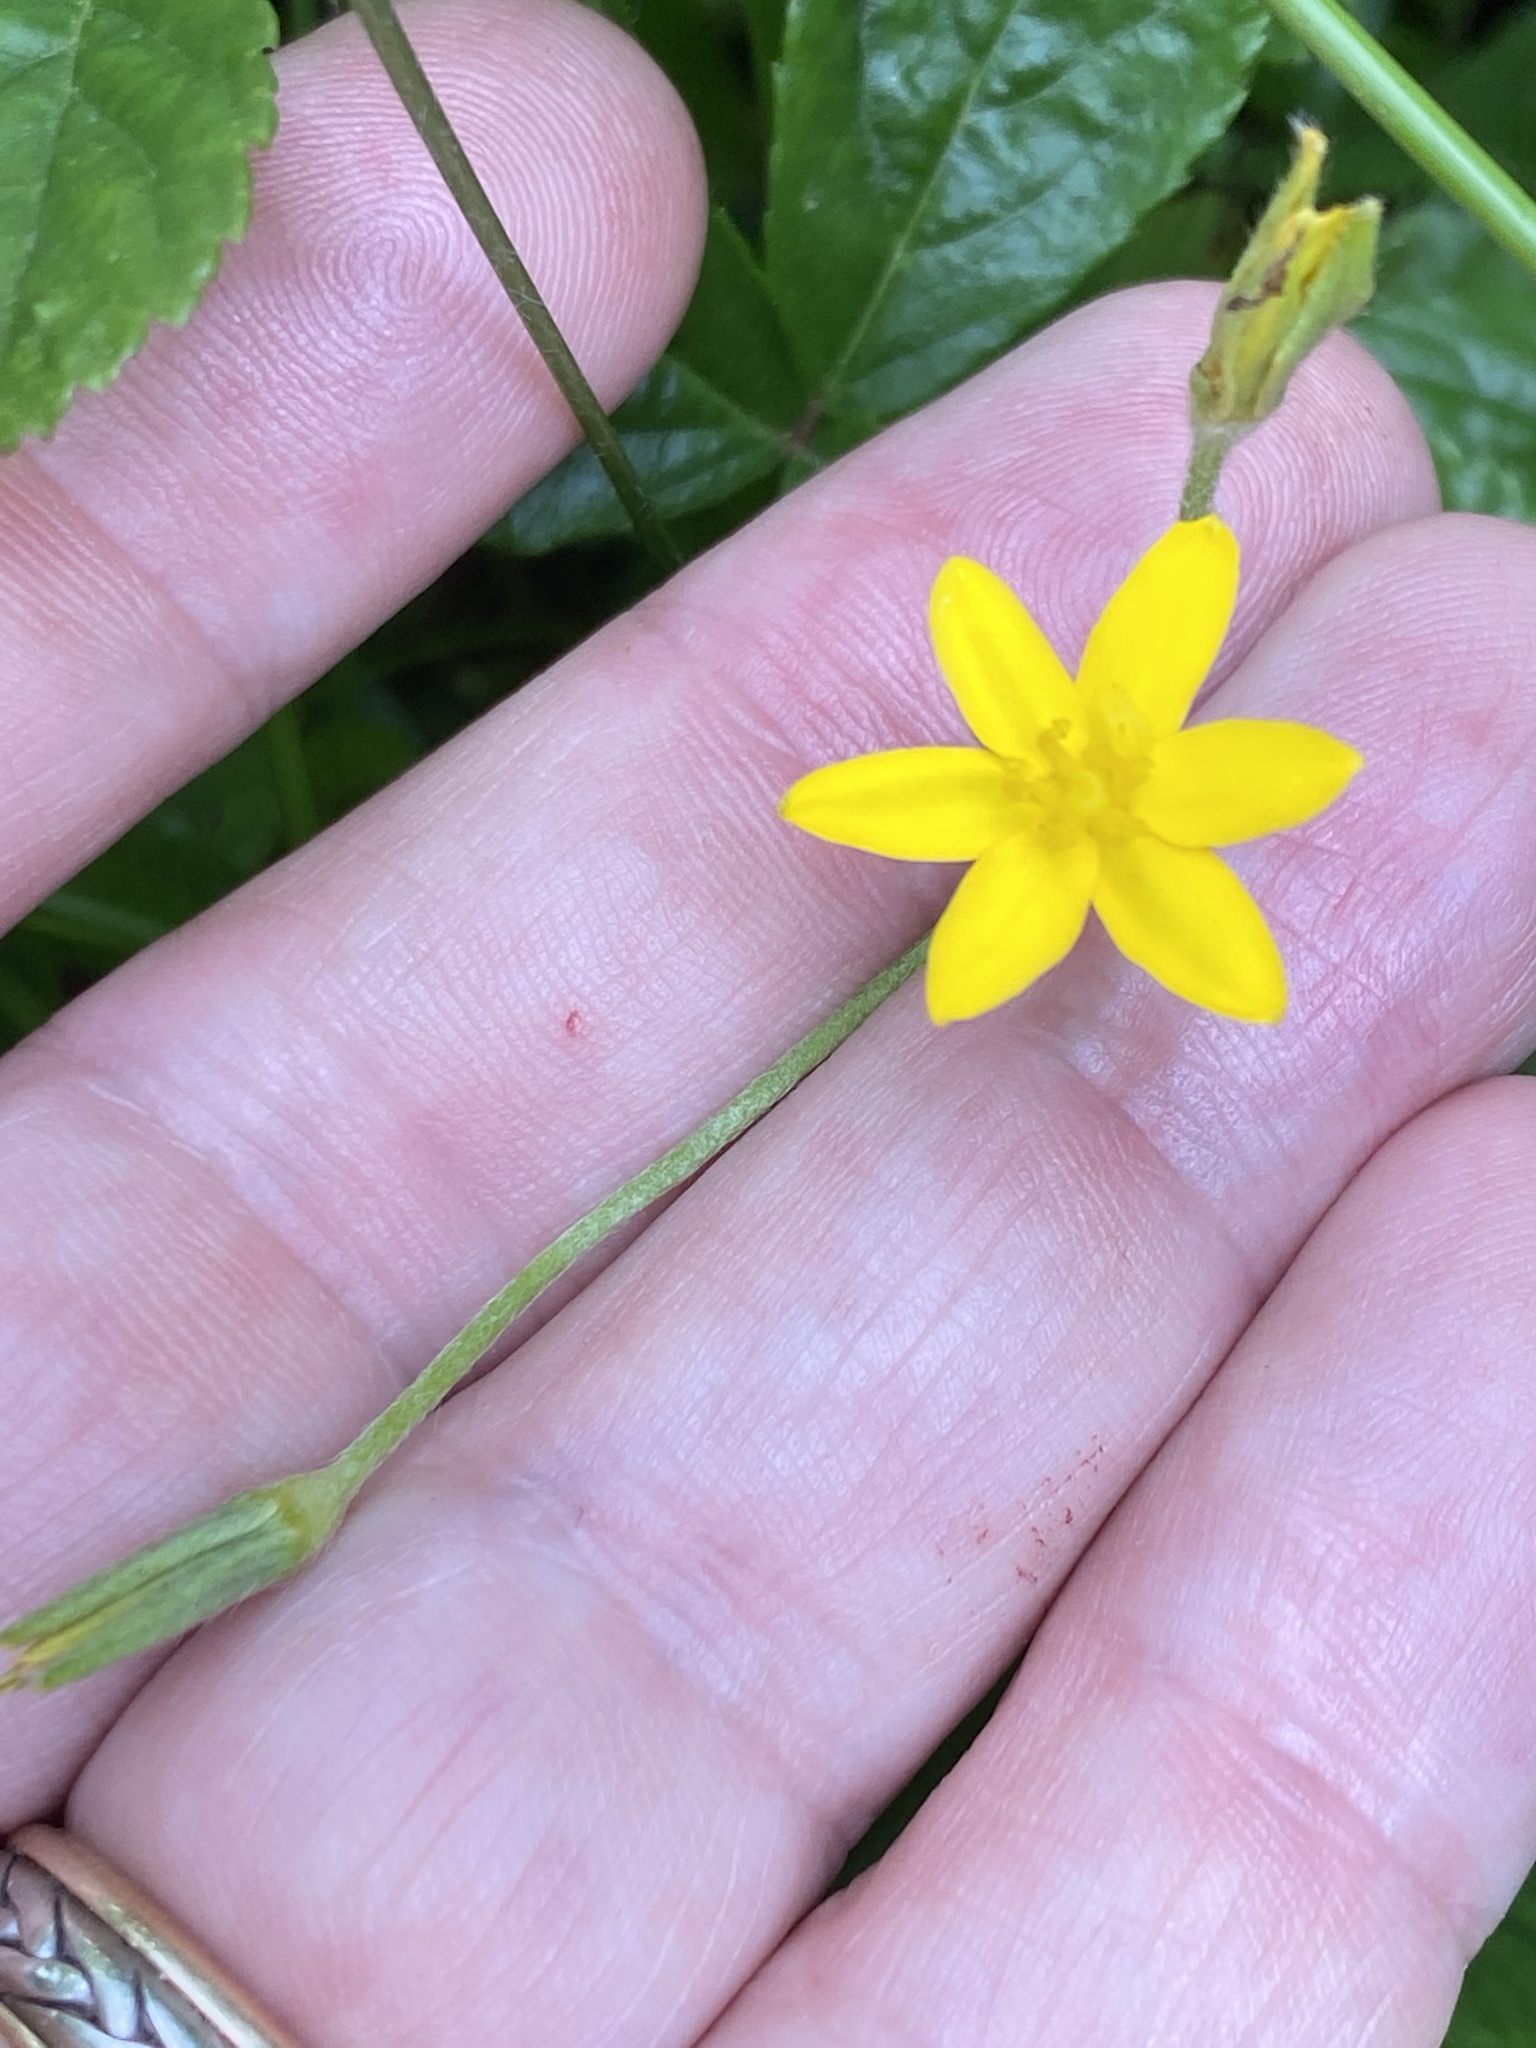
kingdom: Plantae
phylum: Tracheophyta
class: Liliopsida
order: Asparagales
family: Hypoxidaceae
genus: Hypoxis
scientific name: Hypoxis hirsuta
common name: Common goldstar
